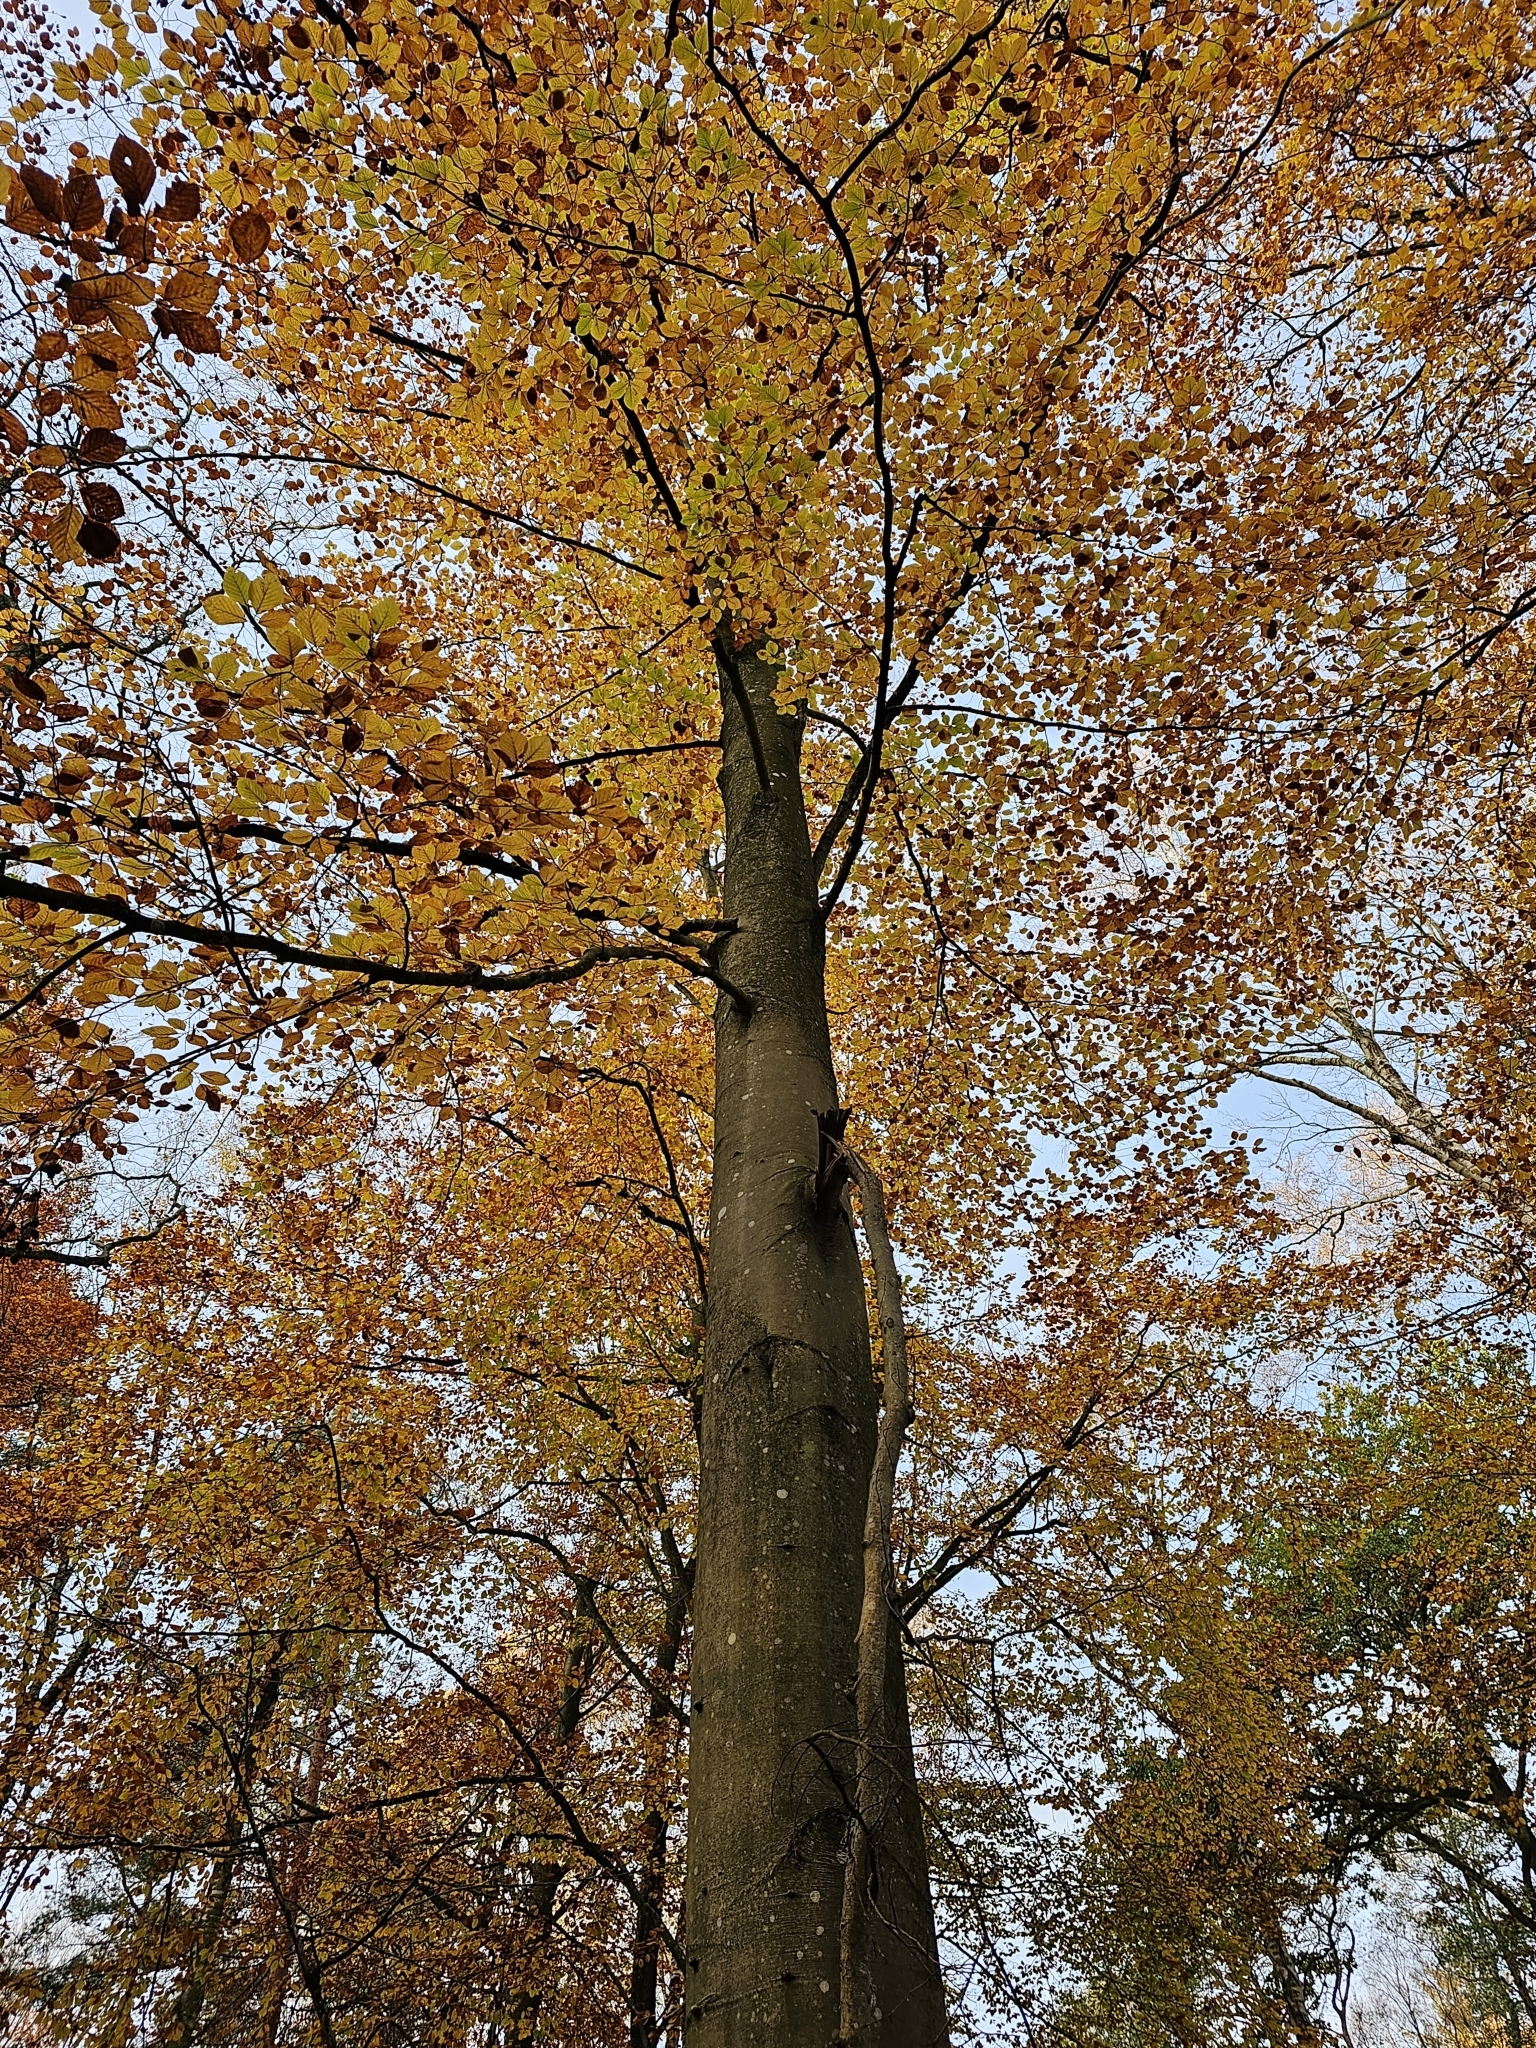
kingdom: Plantae
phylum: Tracheophyta
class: Magnoliopsida
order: Fagales
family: Fagaceae
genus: Fagus
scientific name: Fagus sylvatica
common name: Beech
